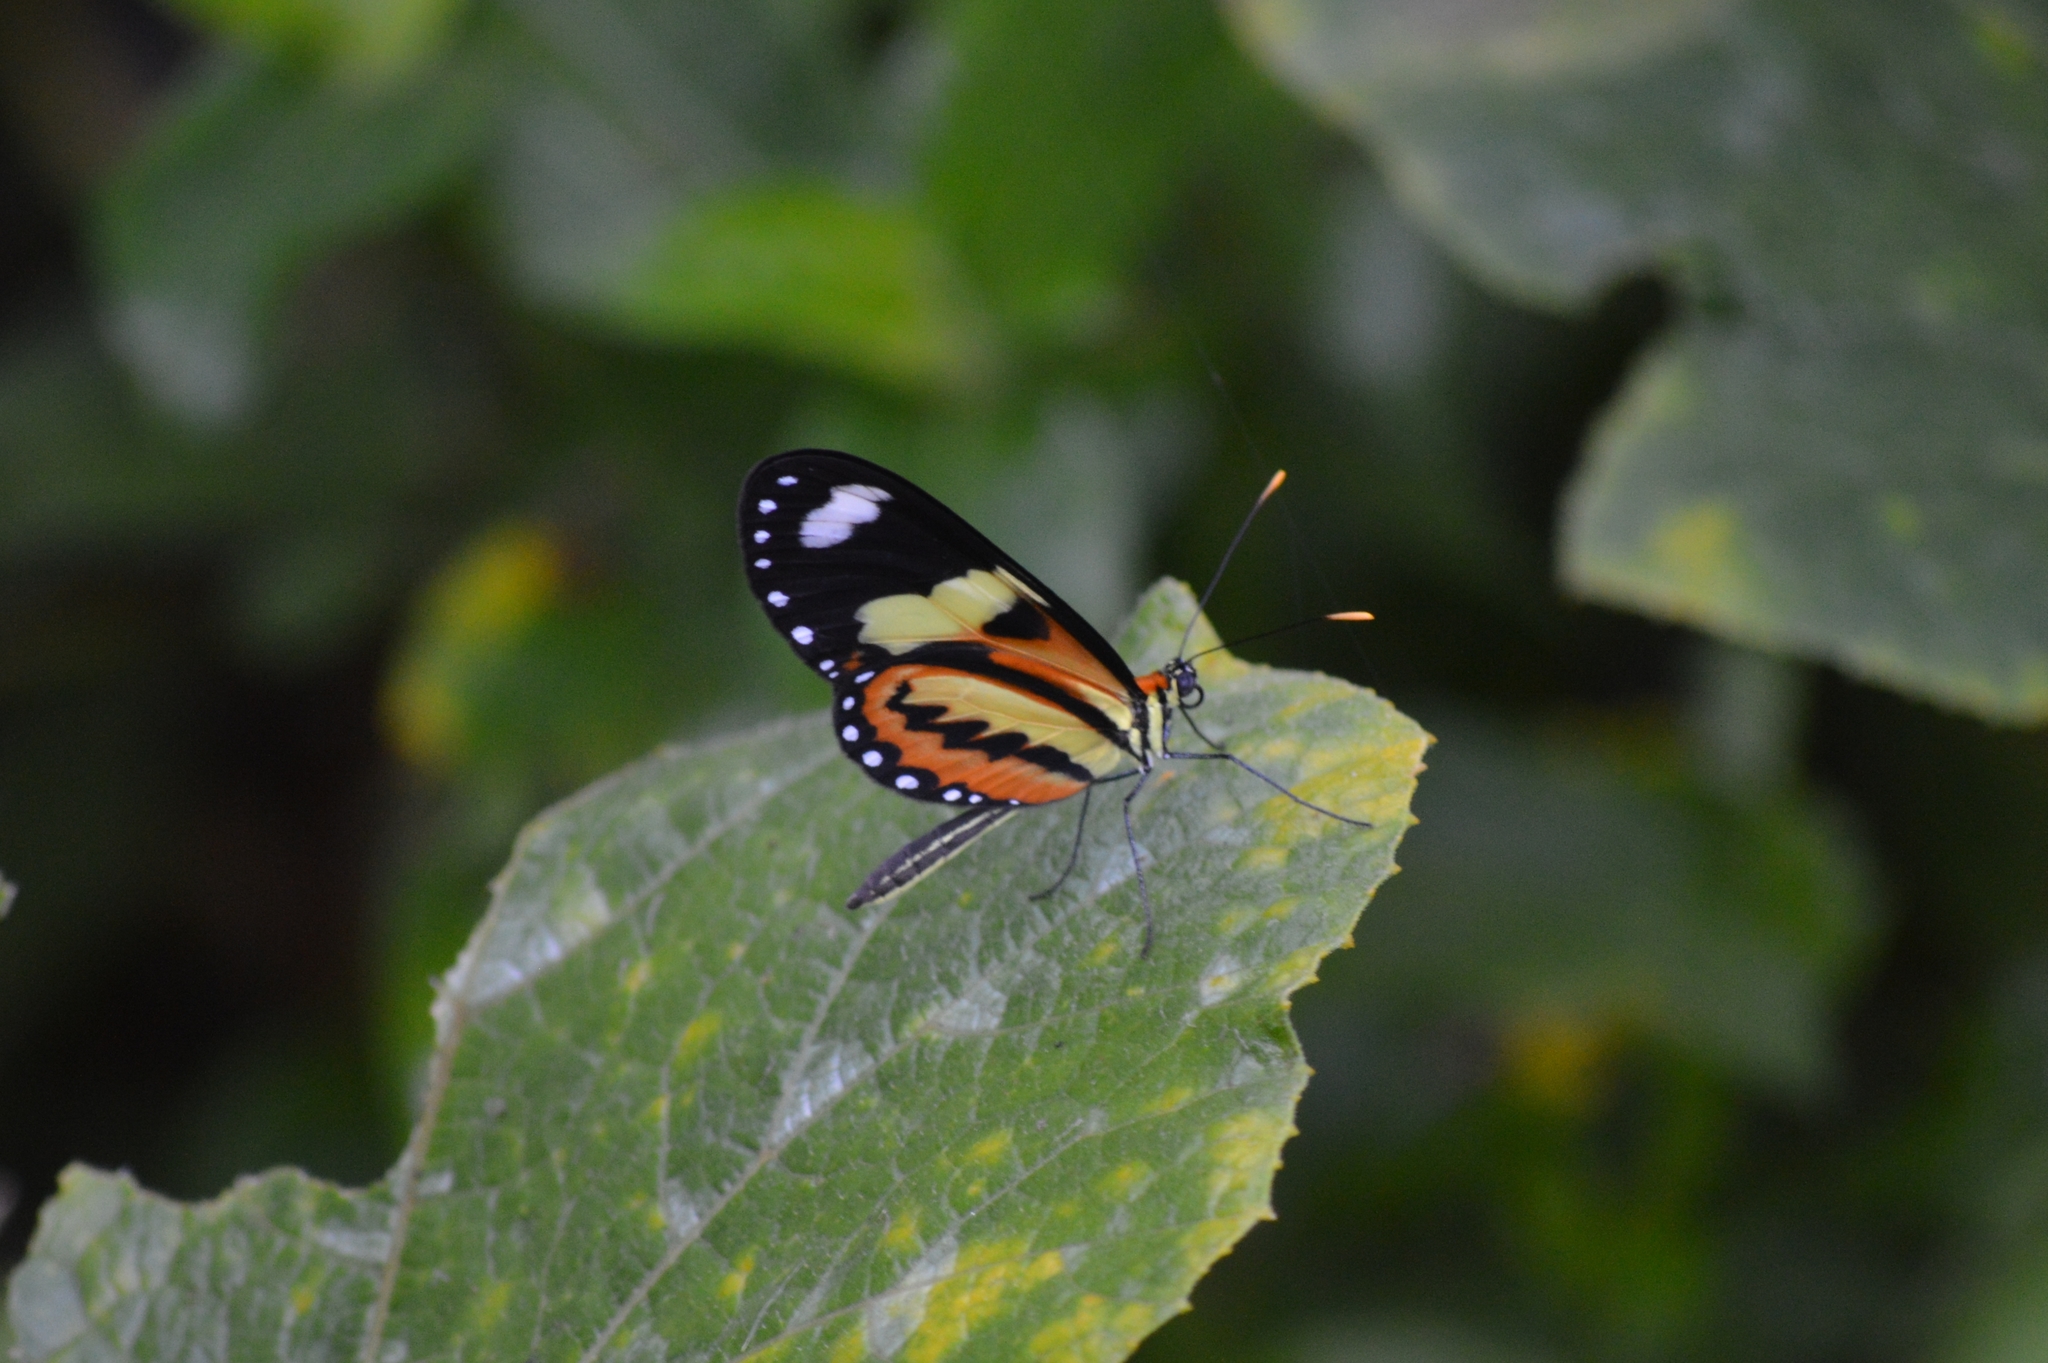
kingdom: Animalia
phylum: Arthropoda
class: Insecta
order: Lepidoptera
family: Nymphalidae
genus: Mechanitis
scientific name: Mechanitis lysimnia
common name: Lysimnia tigerwing
